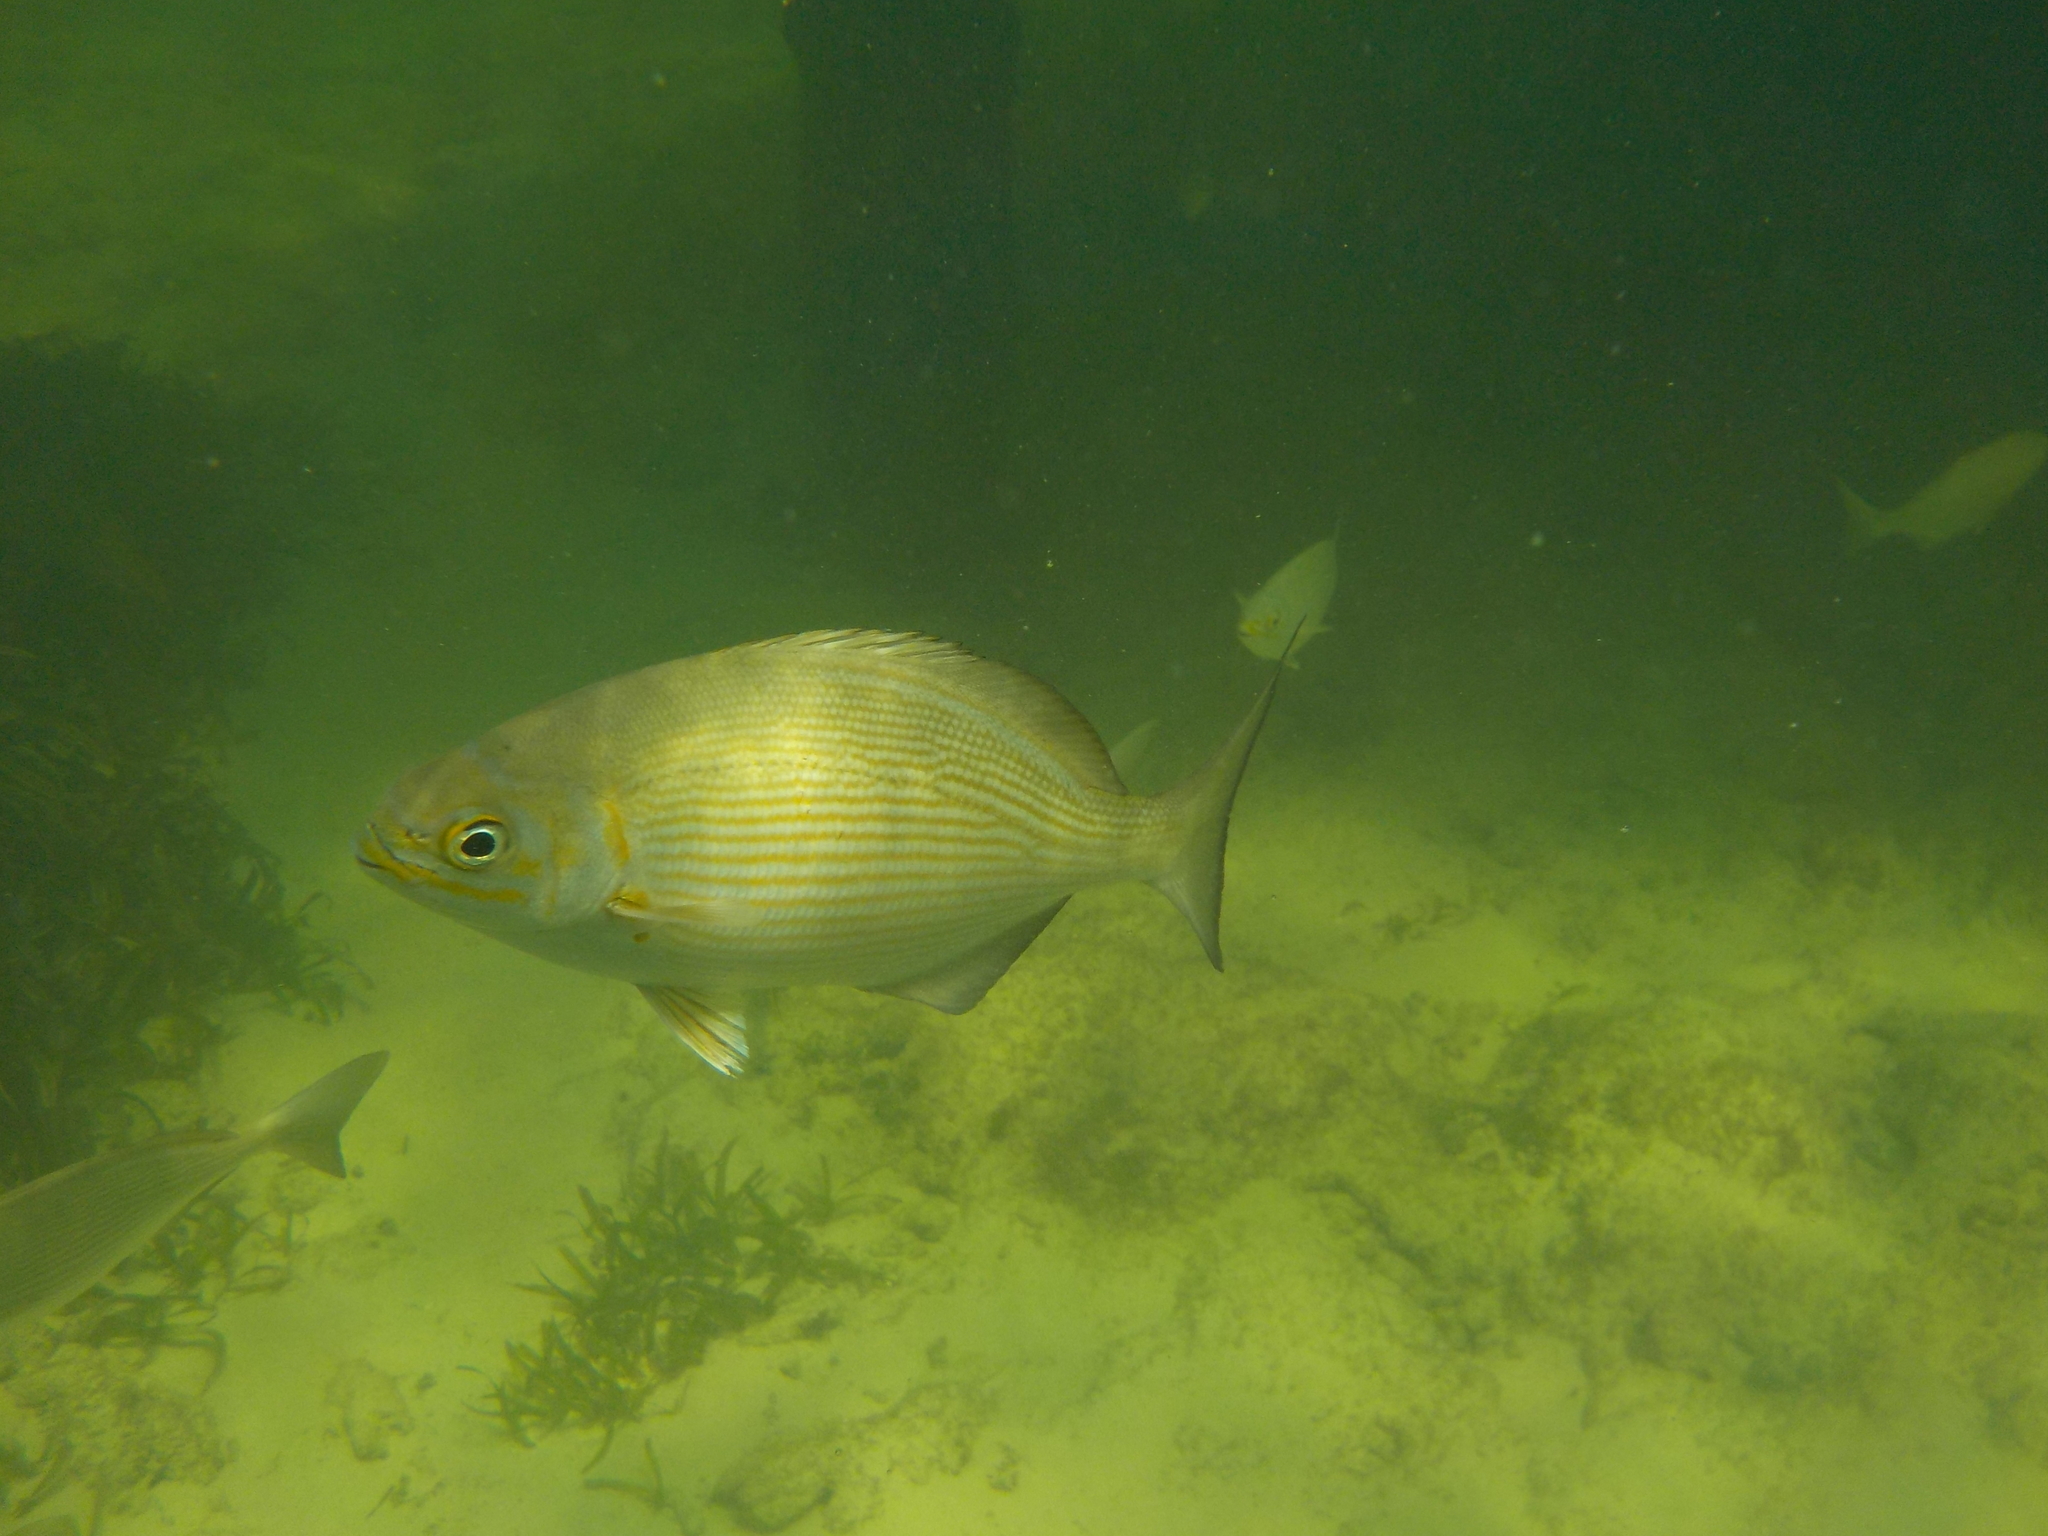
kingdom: Animalia
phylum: Chordata
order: Perciformes
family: Kyphosidae
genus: Kyphosus
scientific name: Kyphosus vaigiensis
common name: Brassy chub
